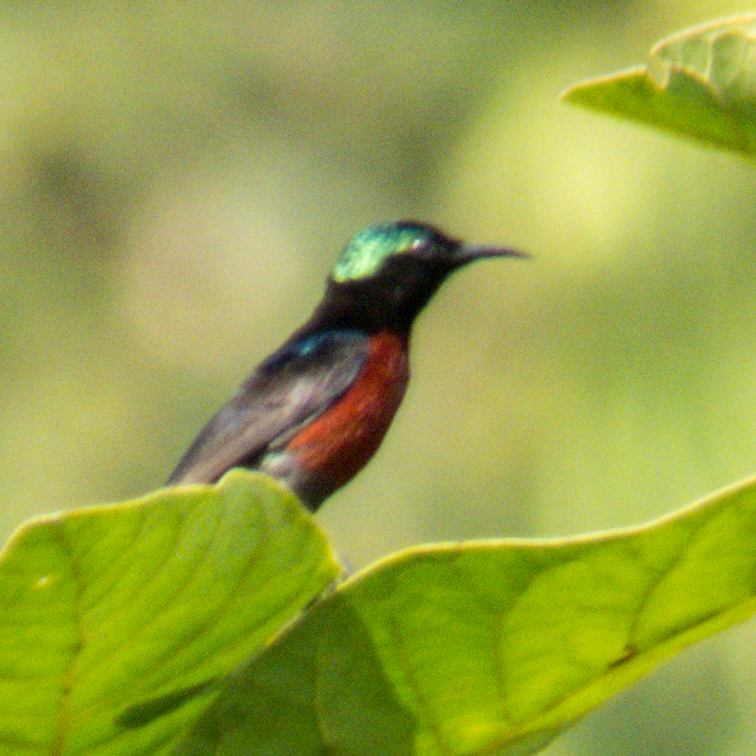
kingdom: Animalia
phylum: Chordata
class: Aves
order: Passeriformes
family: Nectariniidae
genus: Leptocoma
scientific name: Leptocoma brasiliana
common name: Van hasselt's sunbird
